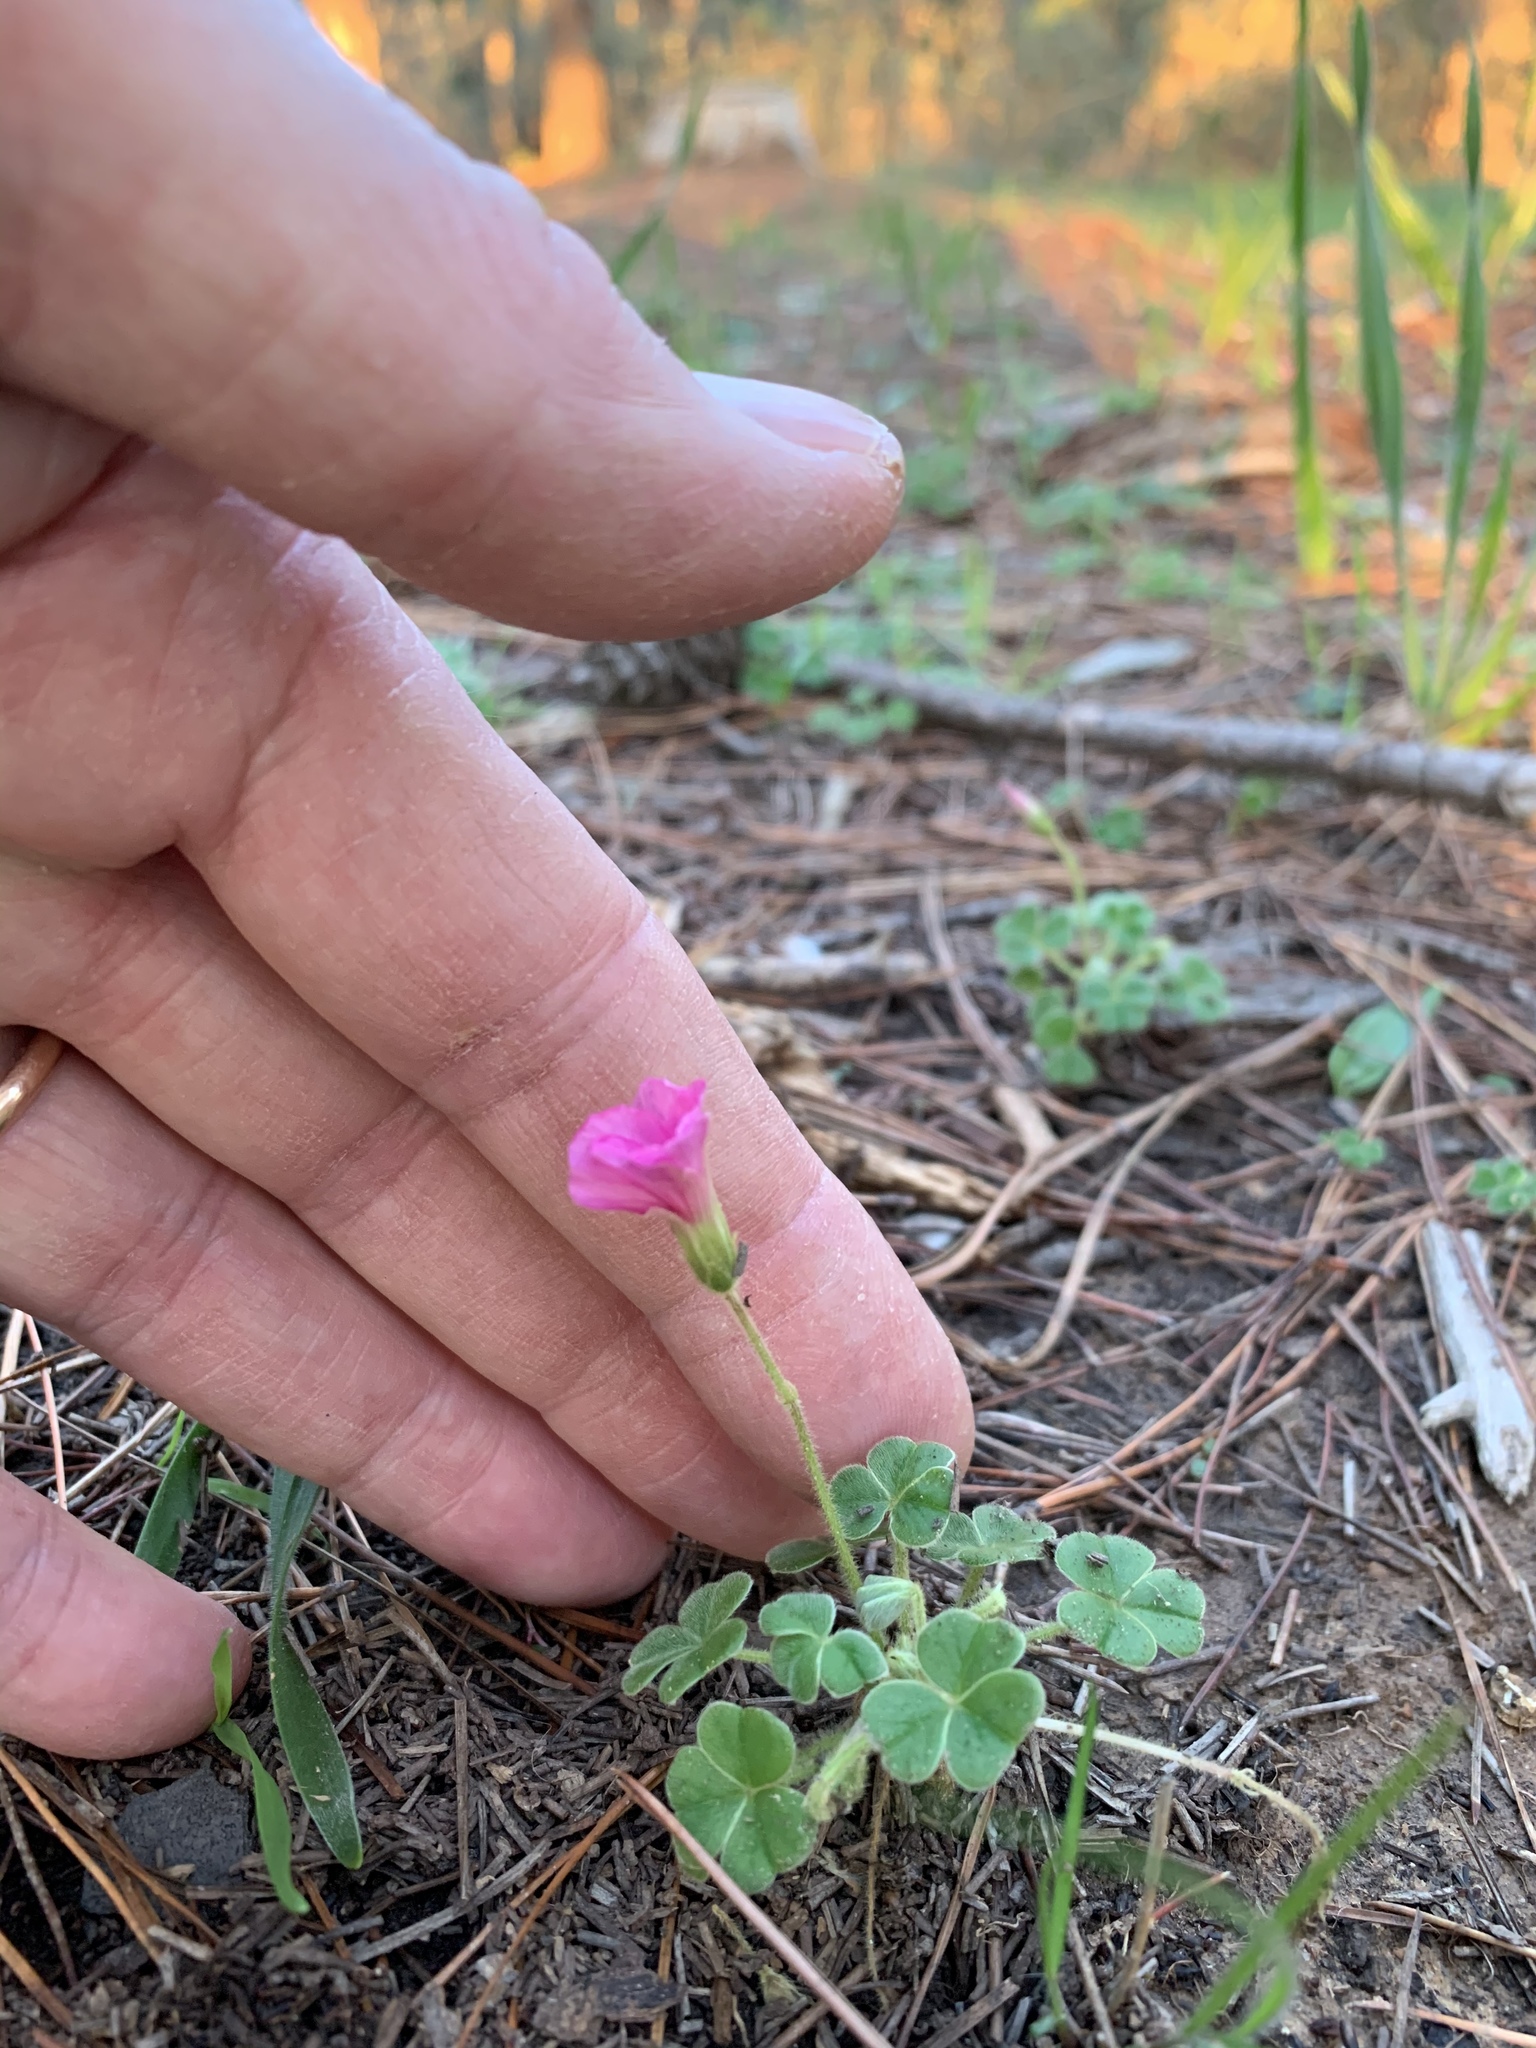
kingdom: Plantae
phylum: Tracheophyta
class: Magnoliopsida
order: Oxalidales
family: Oxalidaceae
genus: Oxalis
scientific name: Oxalis lanata
